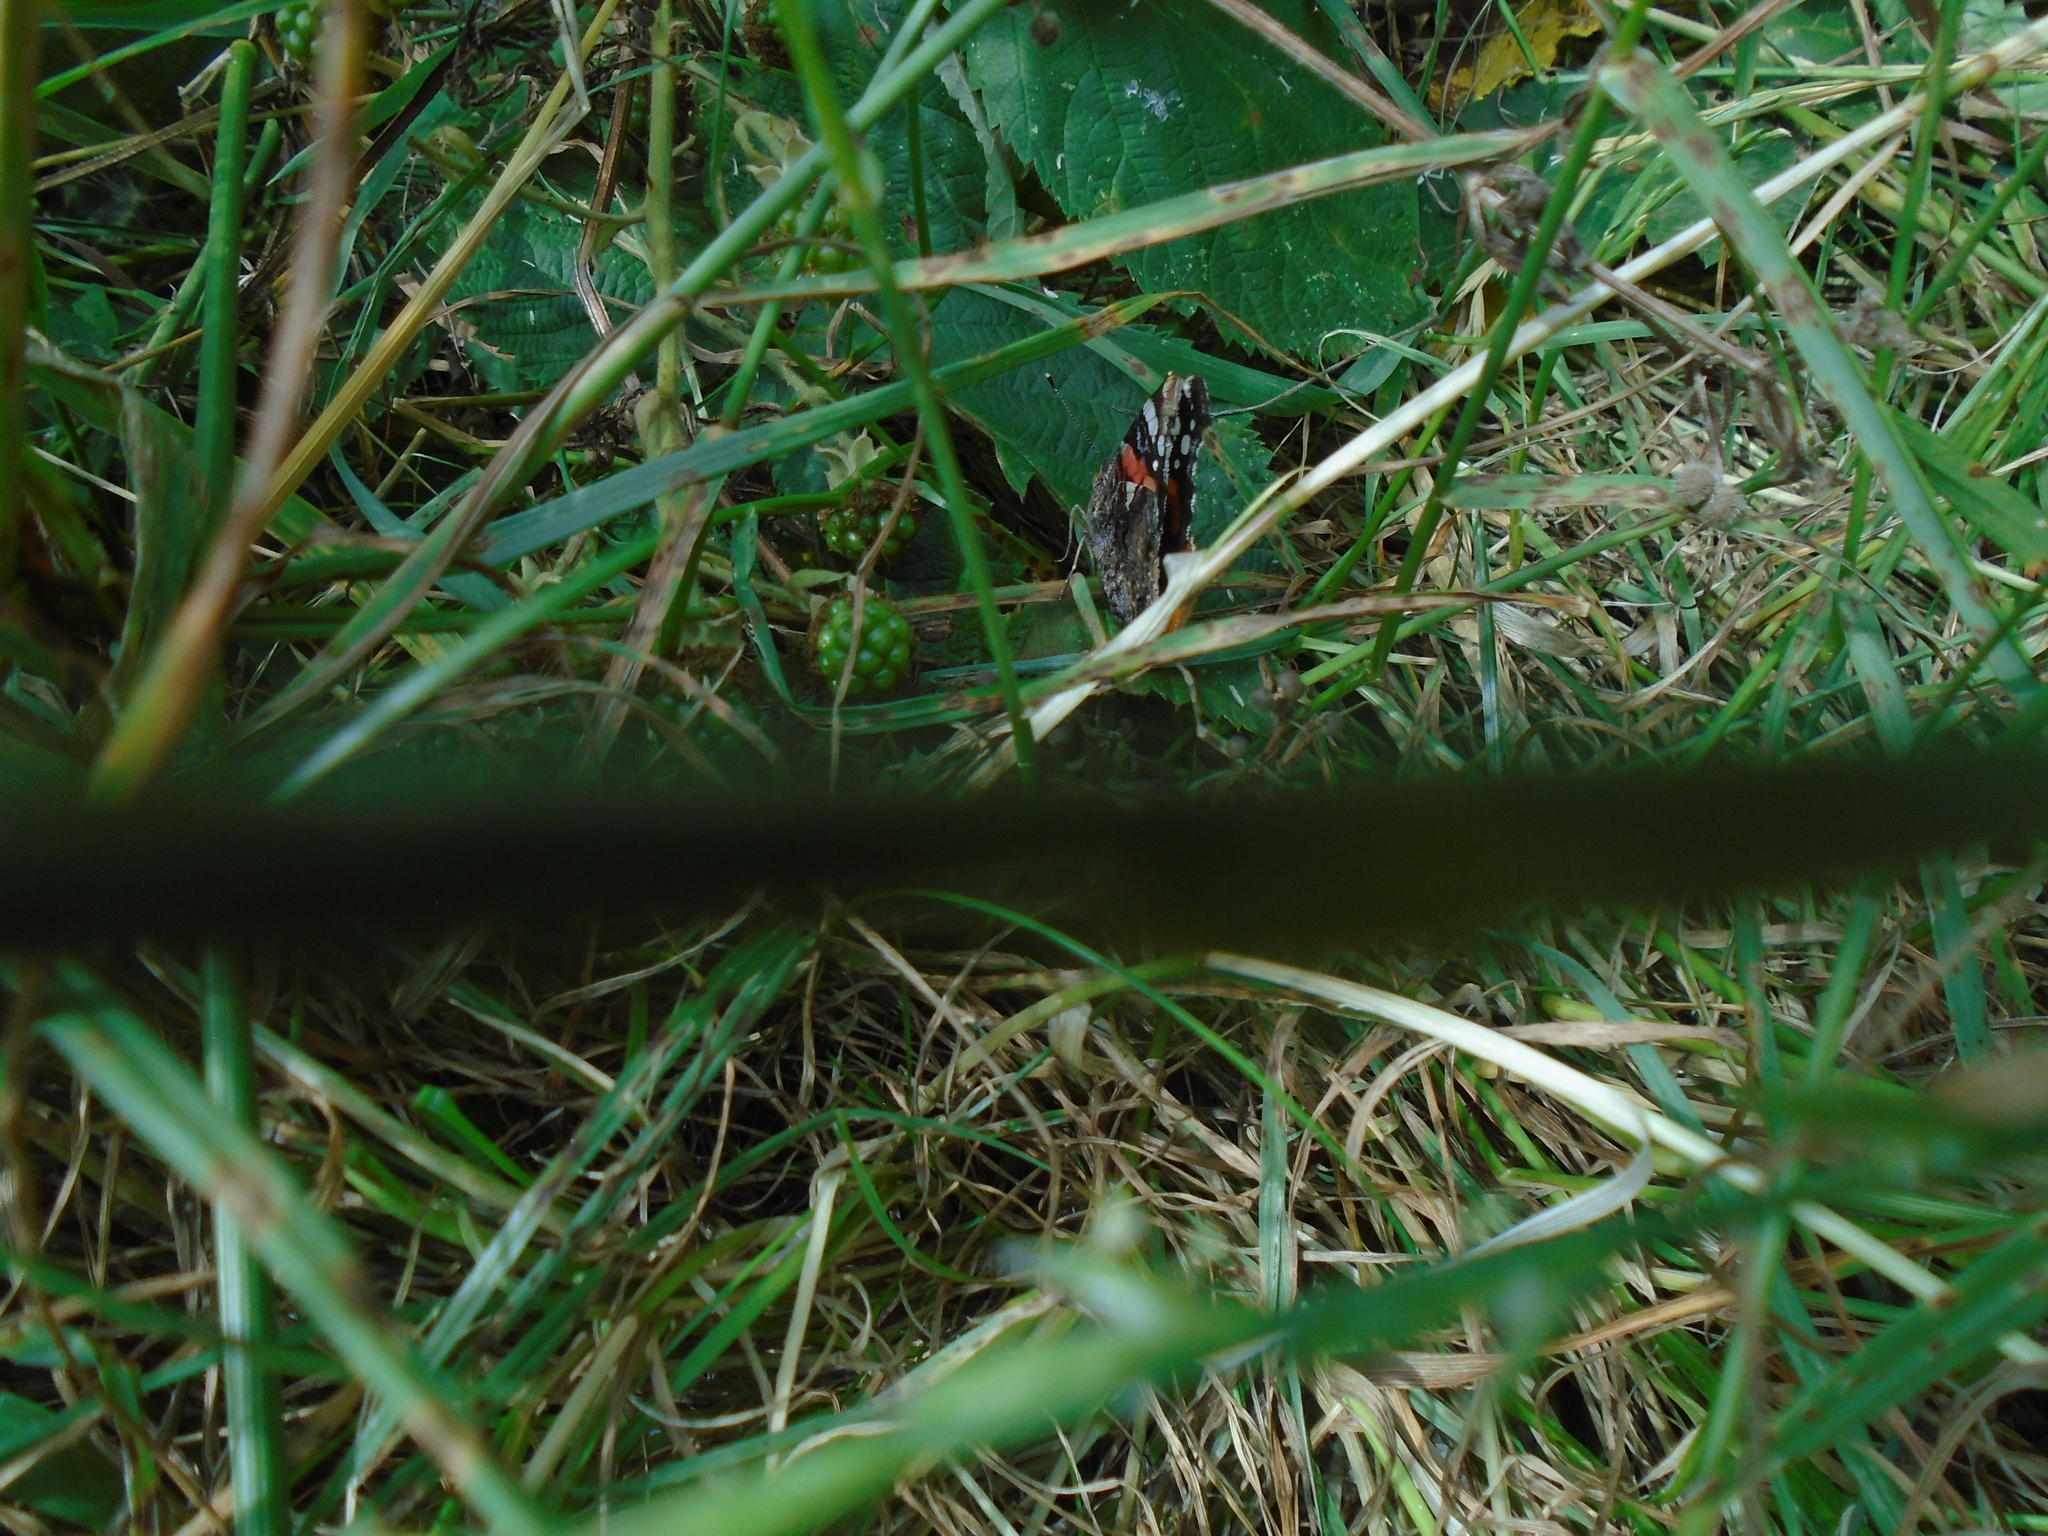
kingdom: Animalia
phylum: Arthropoda
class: Insecta
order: Lepidoptera
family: Nymphalidae
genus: Vanessa
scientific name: Vanessa atalanta
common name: Red admiral
